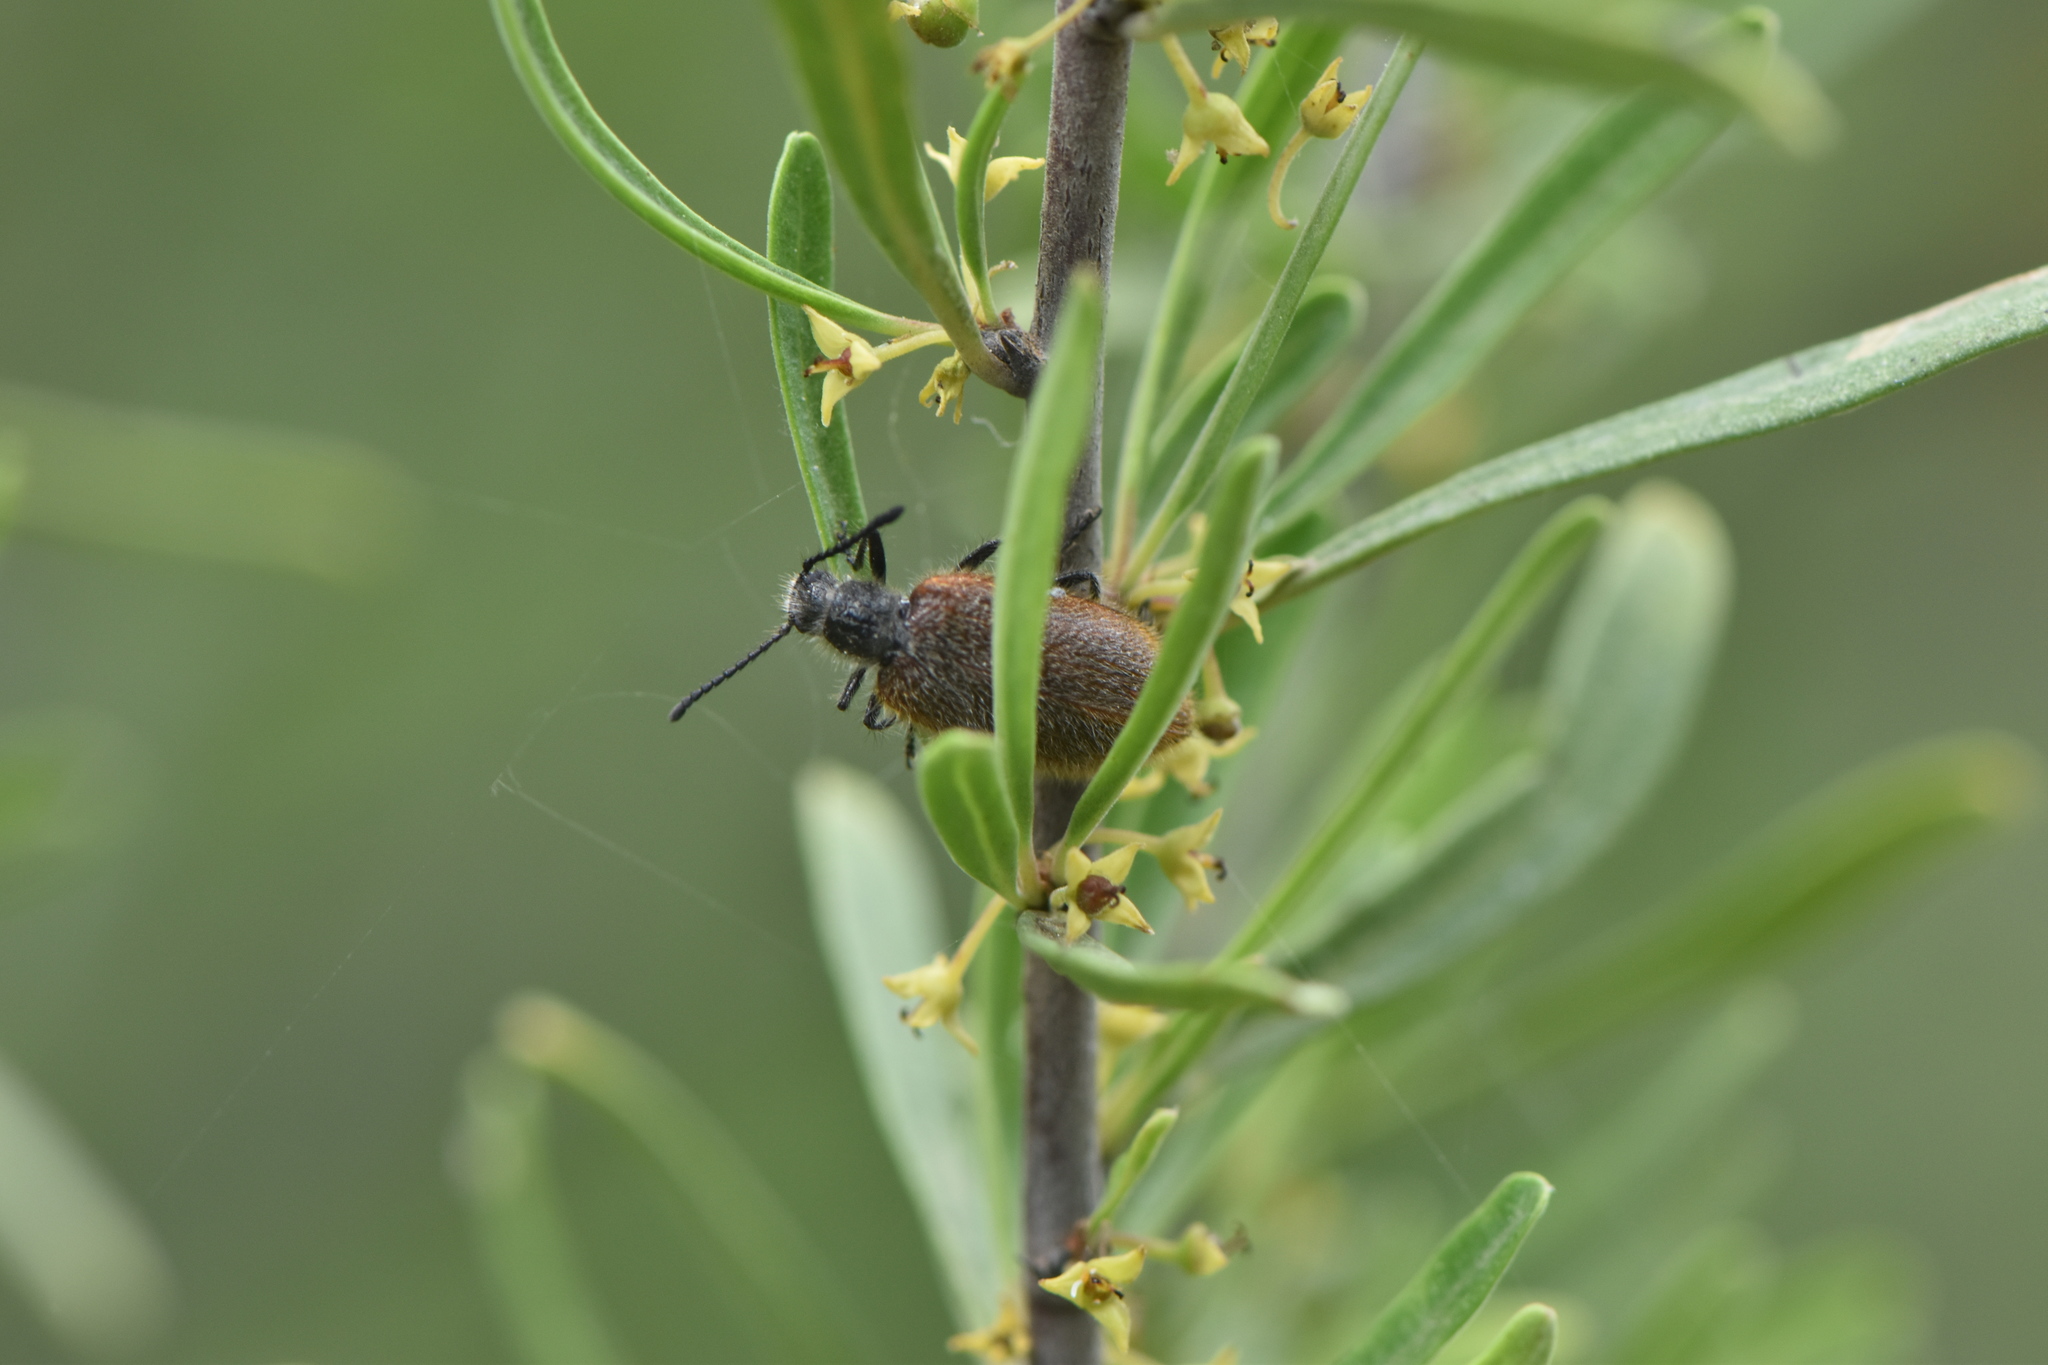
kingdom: Animalia
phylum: Arthropoda
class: Insecta
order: Coleoptera
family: Tenebrionidae
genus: Lagria
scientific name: Lagria grenieri
